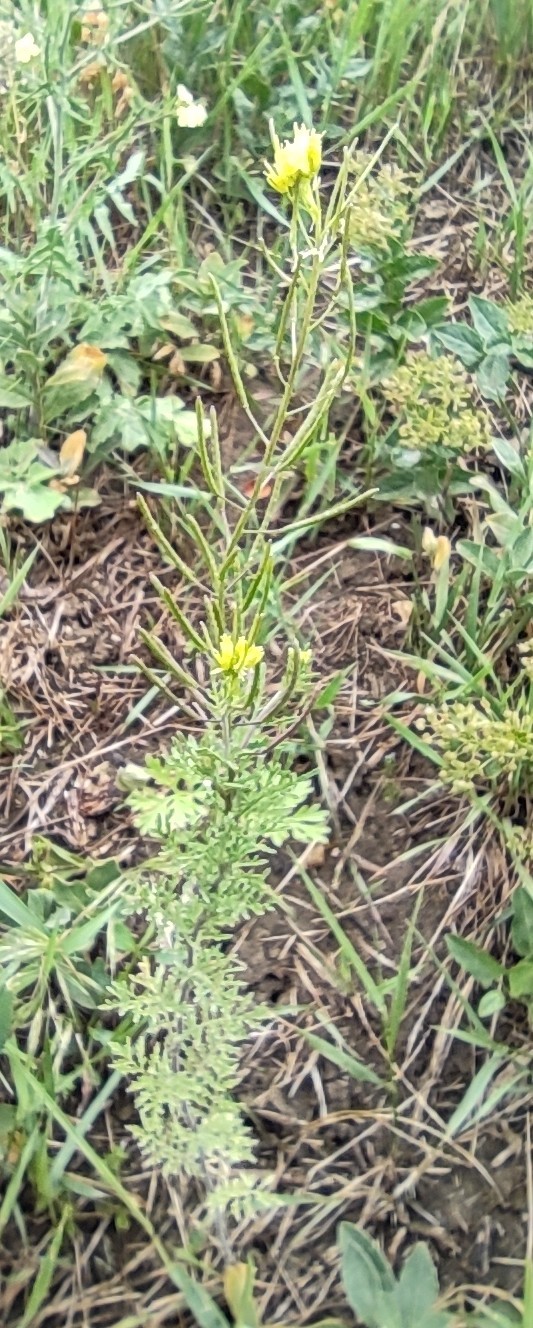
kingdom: Plantae
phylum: Tracheophyta
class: Magnoliopsida
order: Brassicales
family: Brassicaceae
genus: Descurainia
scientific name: Descurainia sophia
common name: Flixweed
